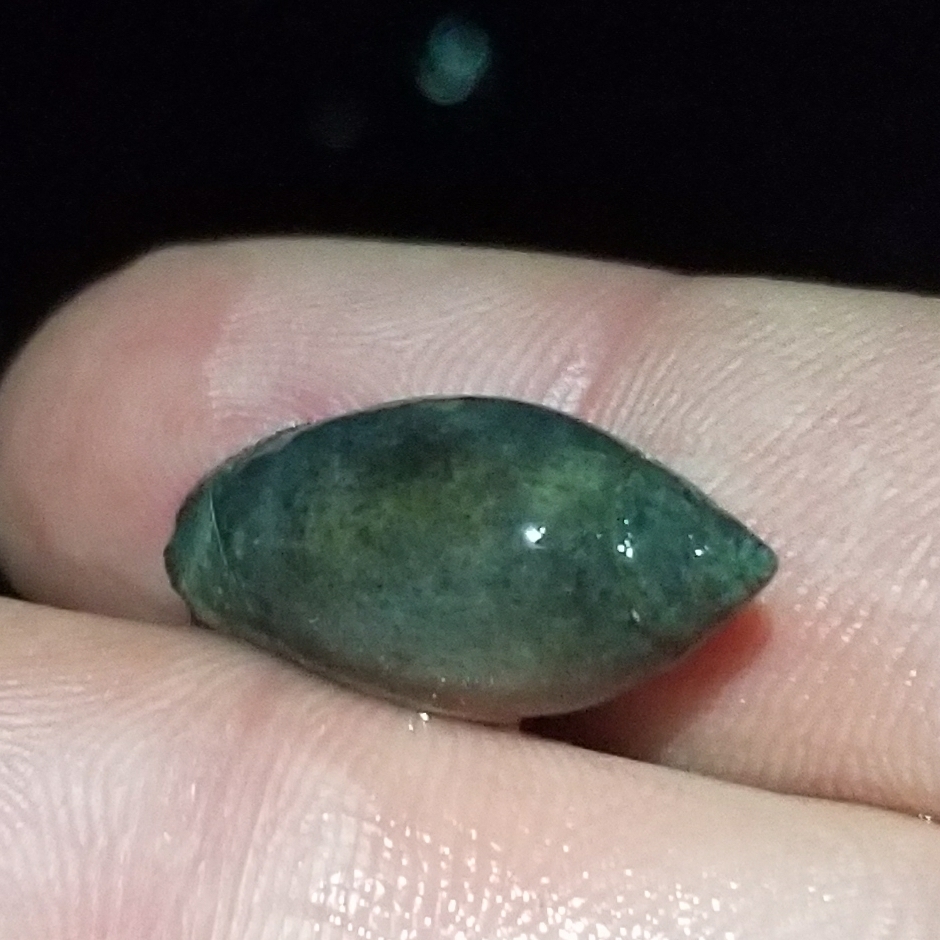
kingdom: Animalia
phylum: Mollusca
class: Gastropoda
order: Neogastropoda
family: Olividae
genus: Callianax
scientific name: Callianax biplicata
